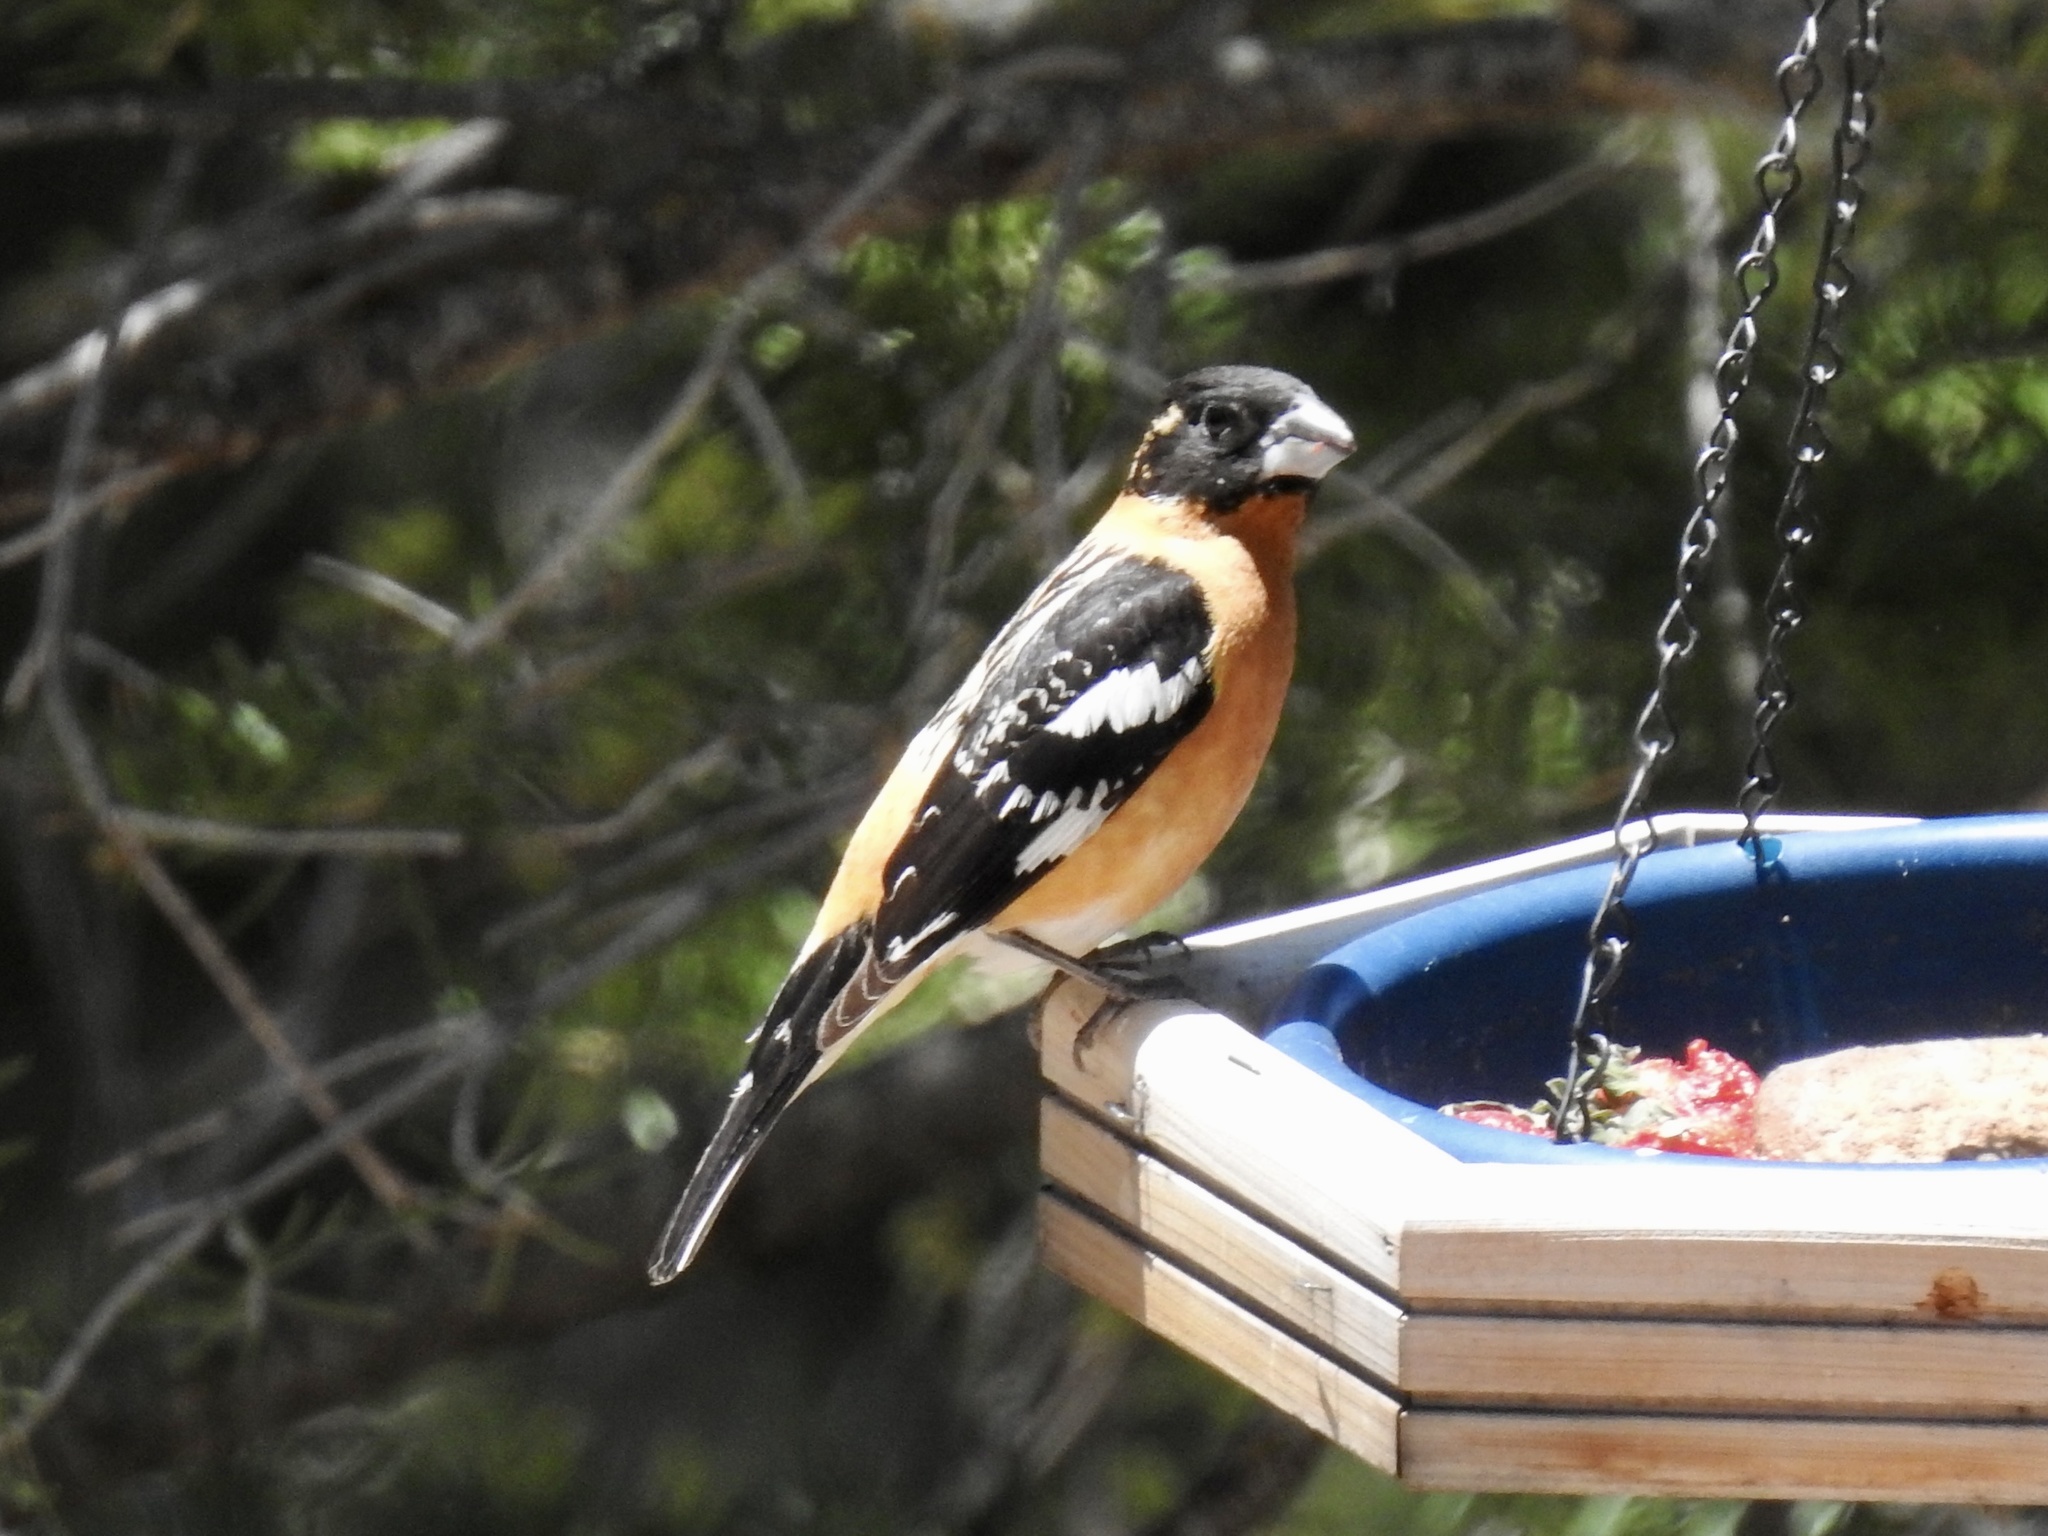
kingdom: Animalia
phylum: Chordata
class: Aves
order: Passeriformes
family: Cardinalidae
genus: Pheucticus
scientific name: Pheucticus melanocephalus
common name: Black-headed grosbeak
